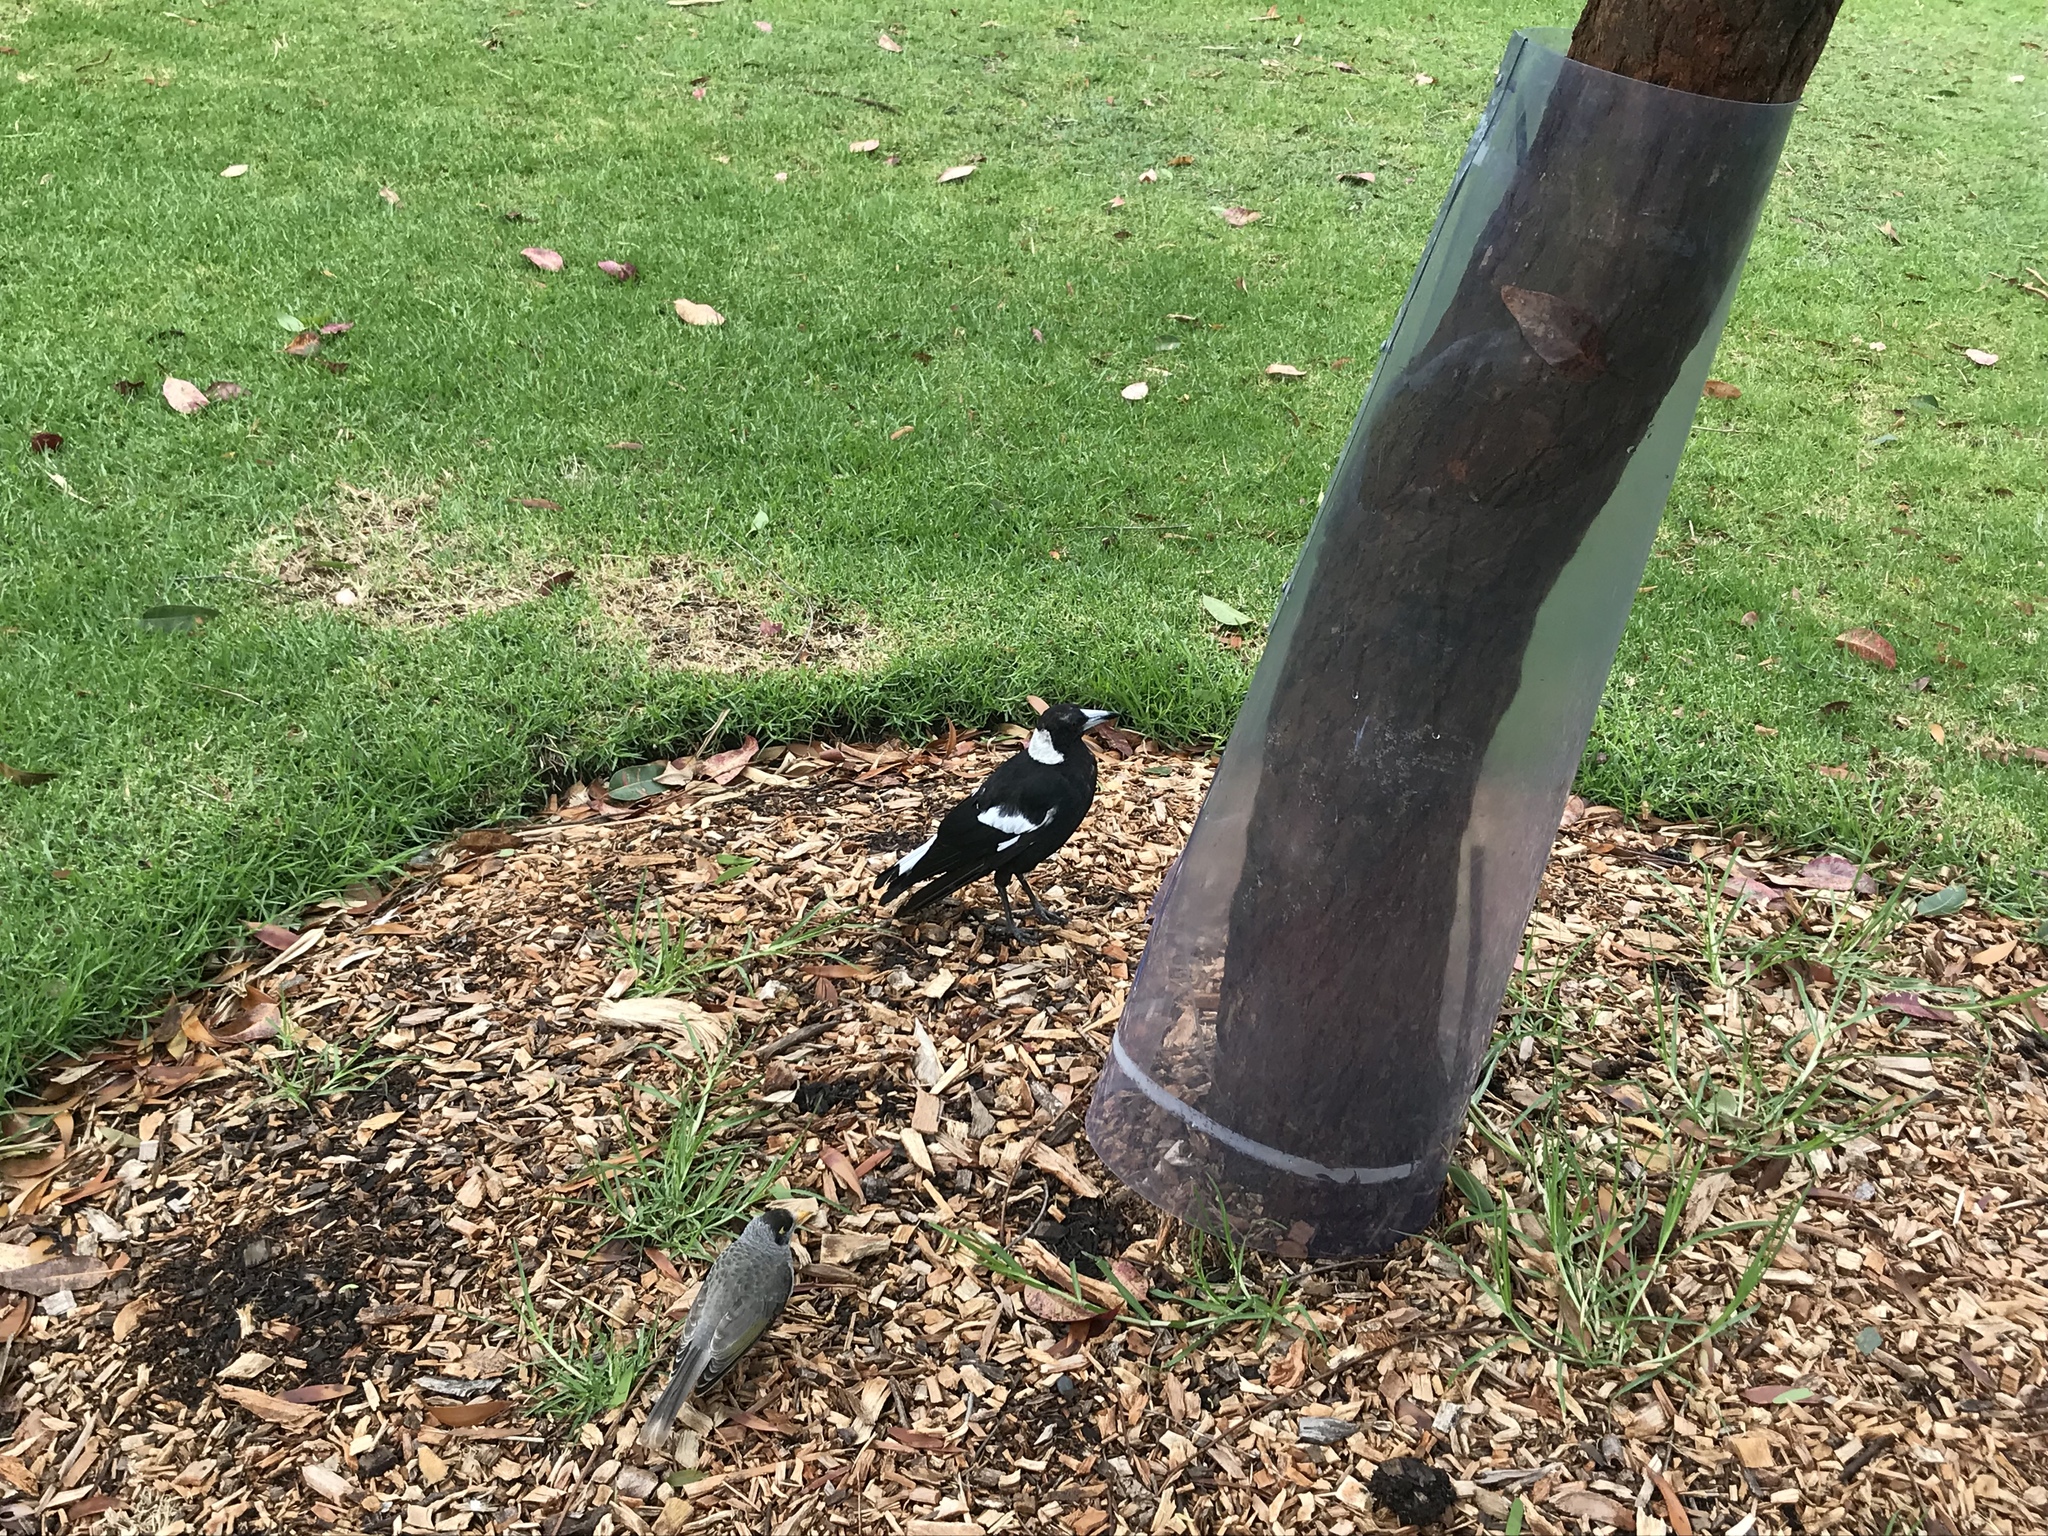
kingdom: Animalia
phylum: Chordata
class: Aves
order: Passeriformes
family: Cracticidae
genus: Gymnorhina
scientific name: Gymnorhina tibicen
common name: Australian magpie
